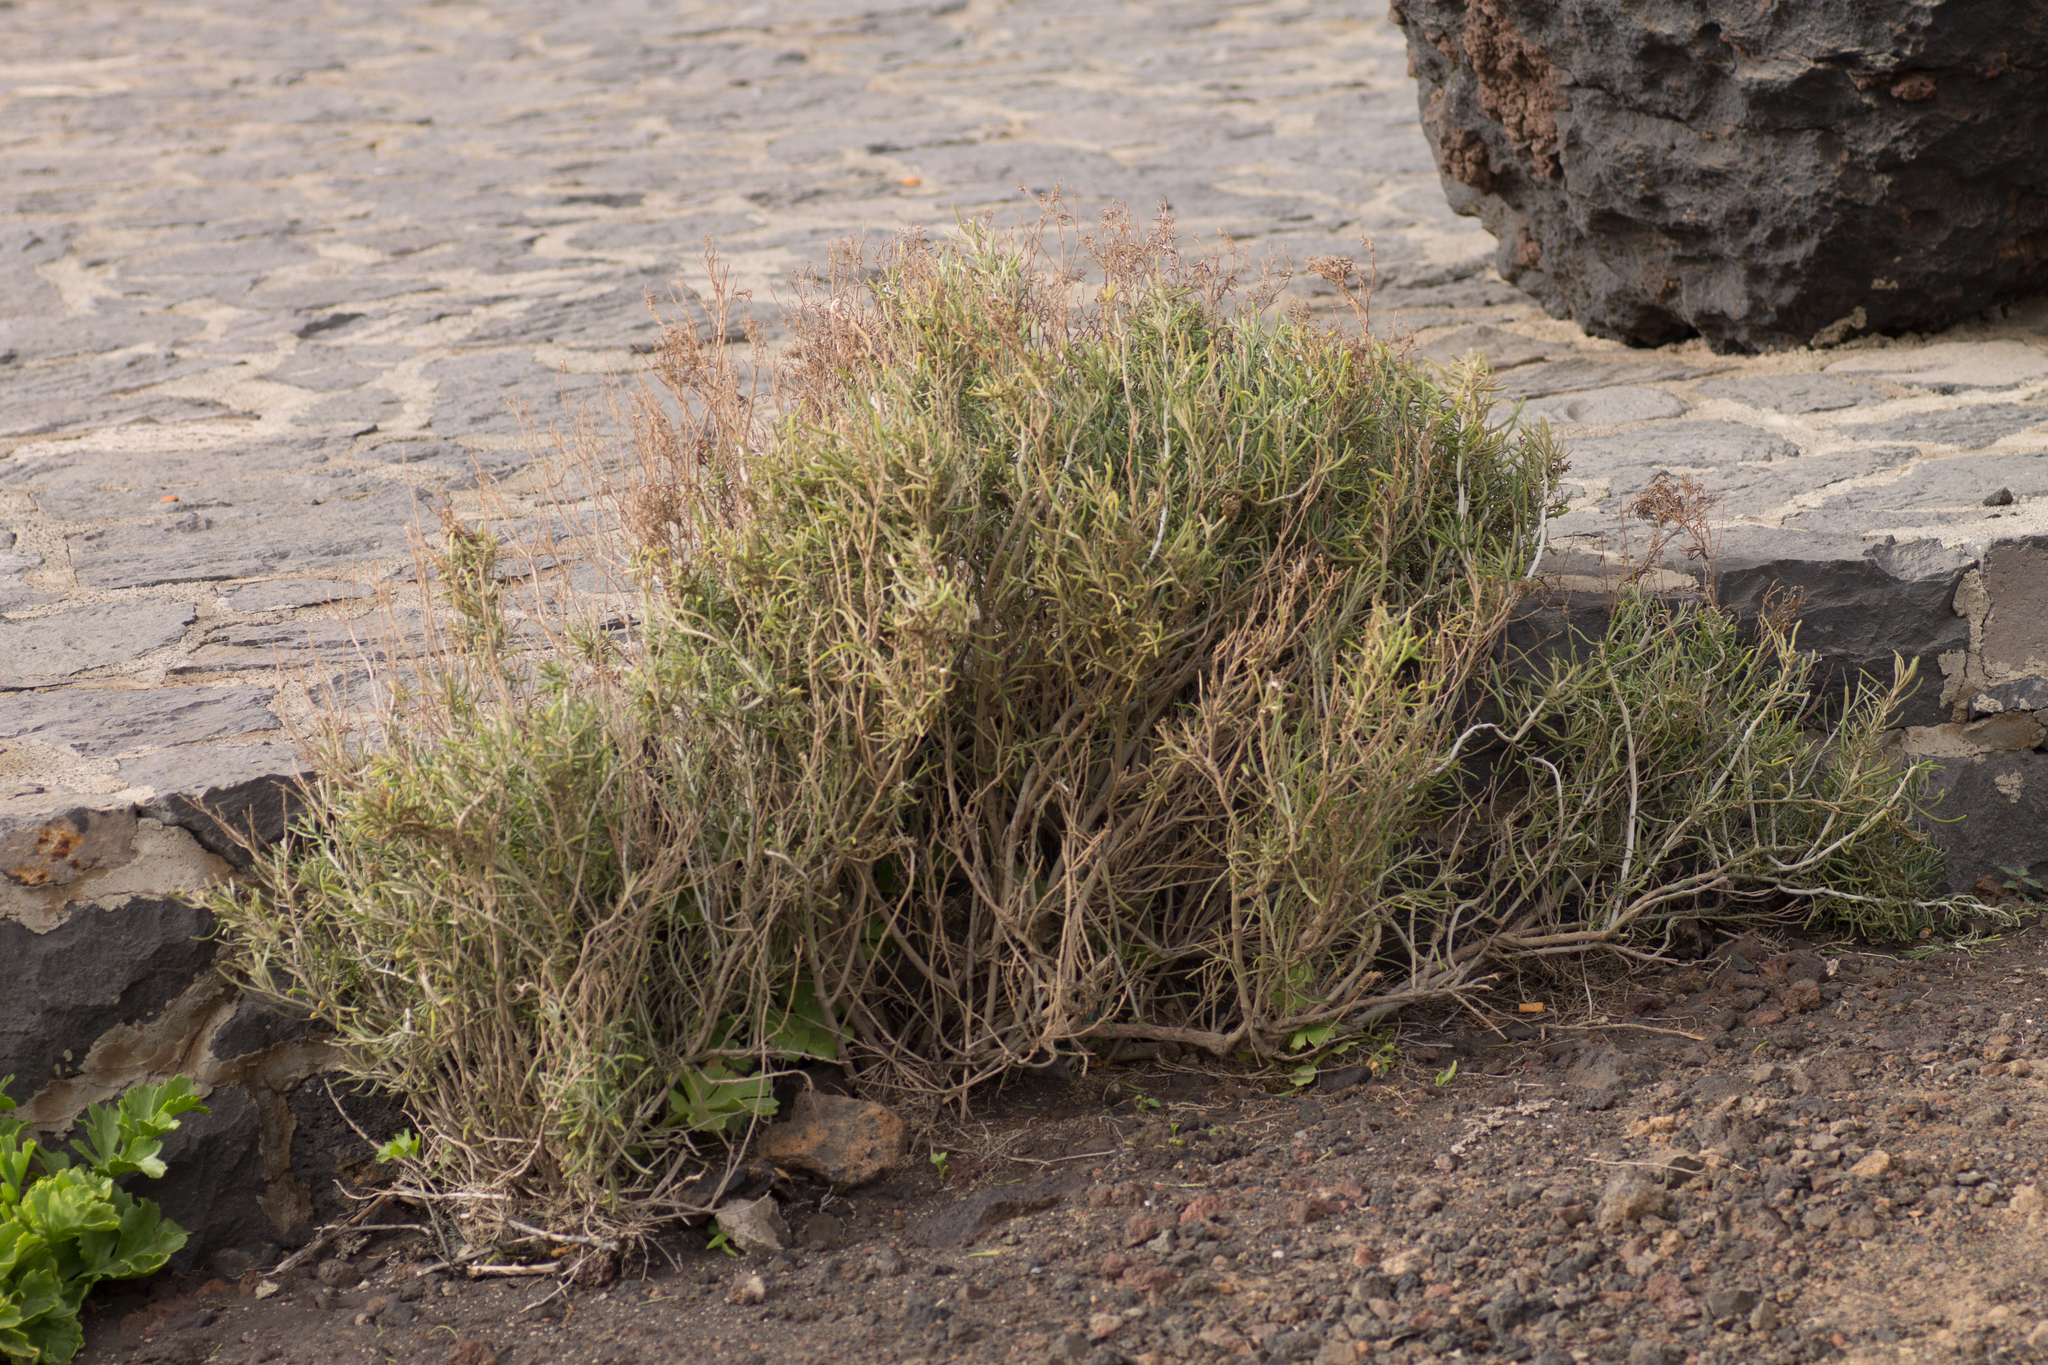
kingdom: Plantae
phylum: Tracheophyta
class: Magnoliopsida
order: Asterales
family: Asteraceae
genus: Schizogyne
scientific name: Schizogyne sericea
